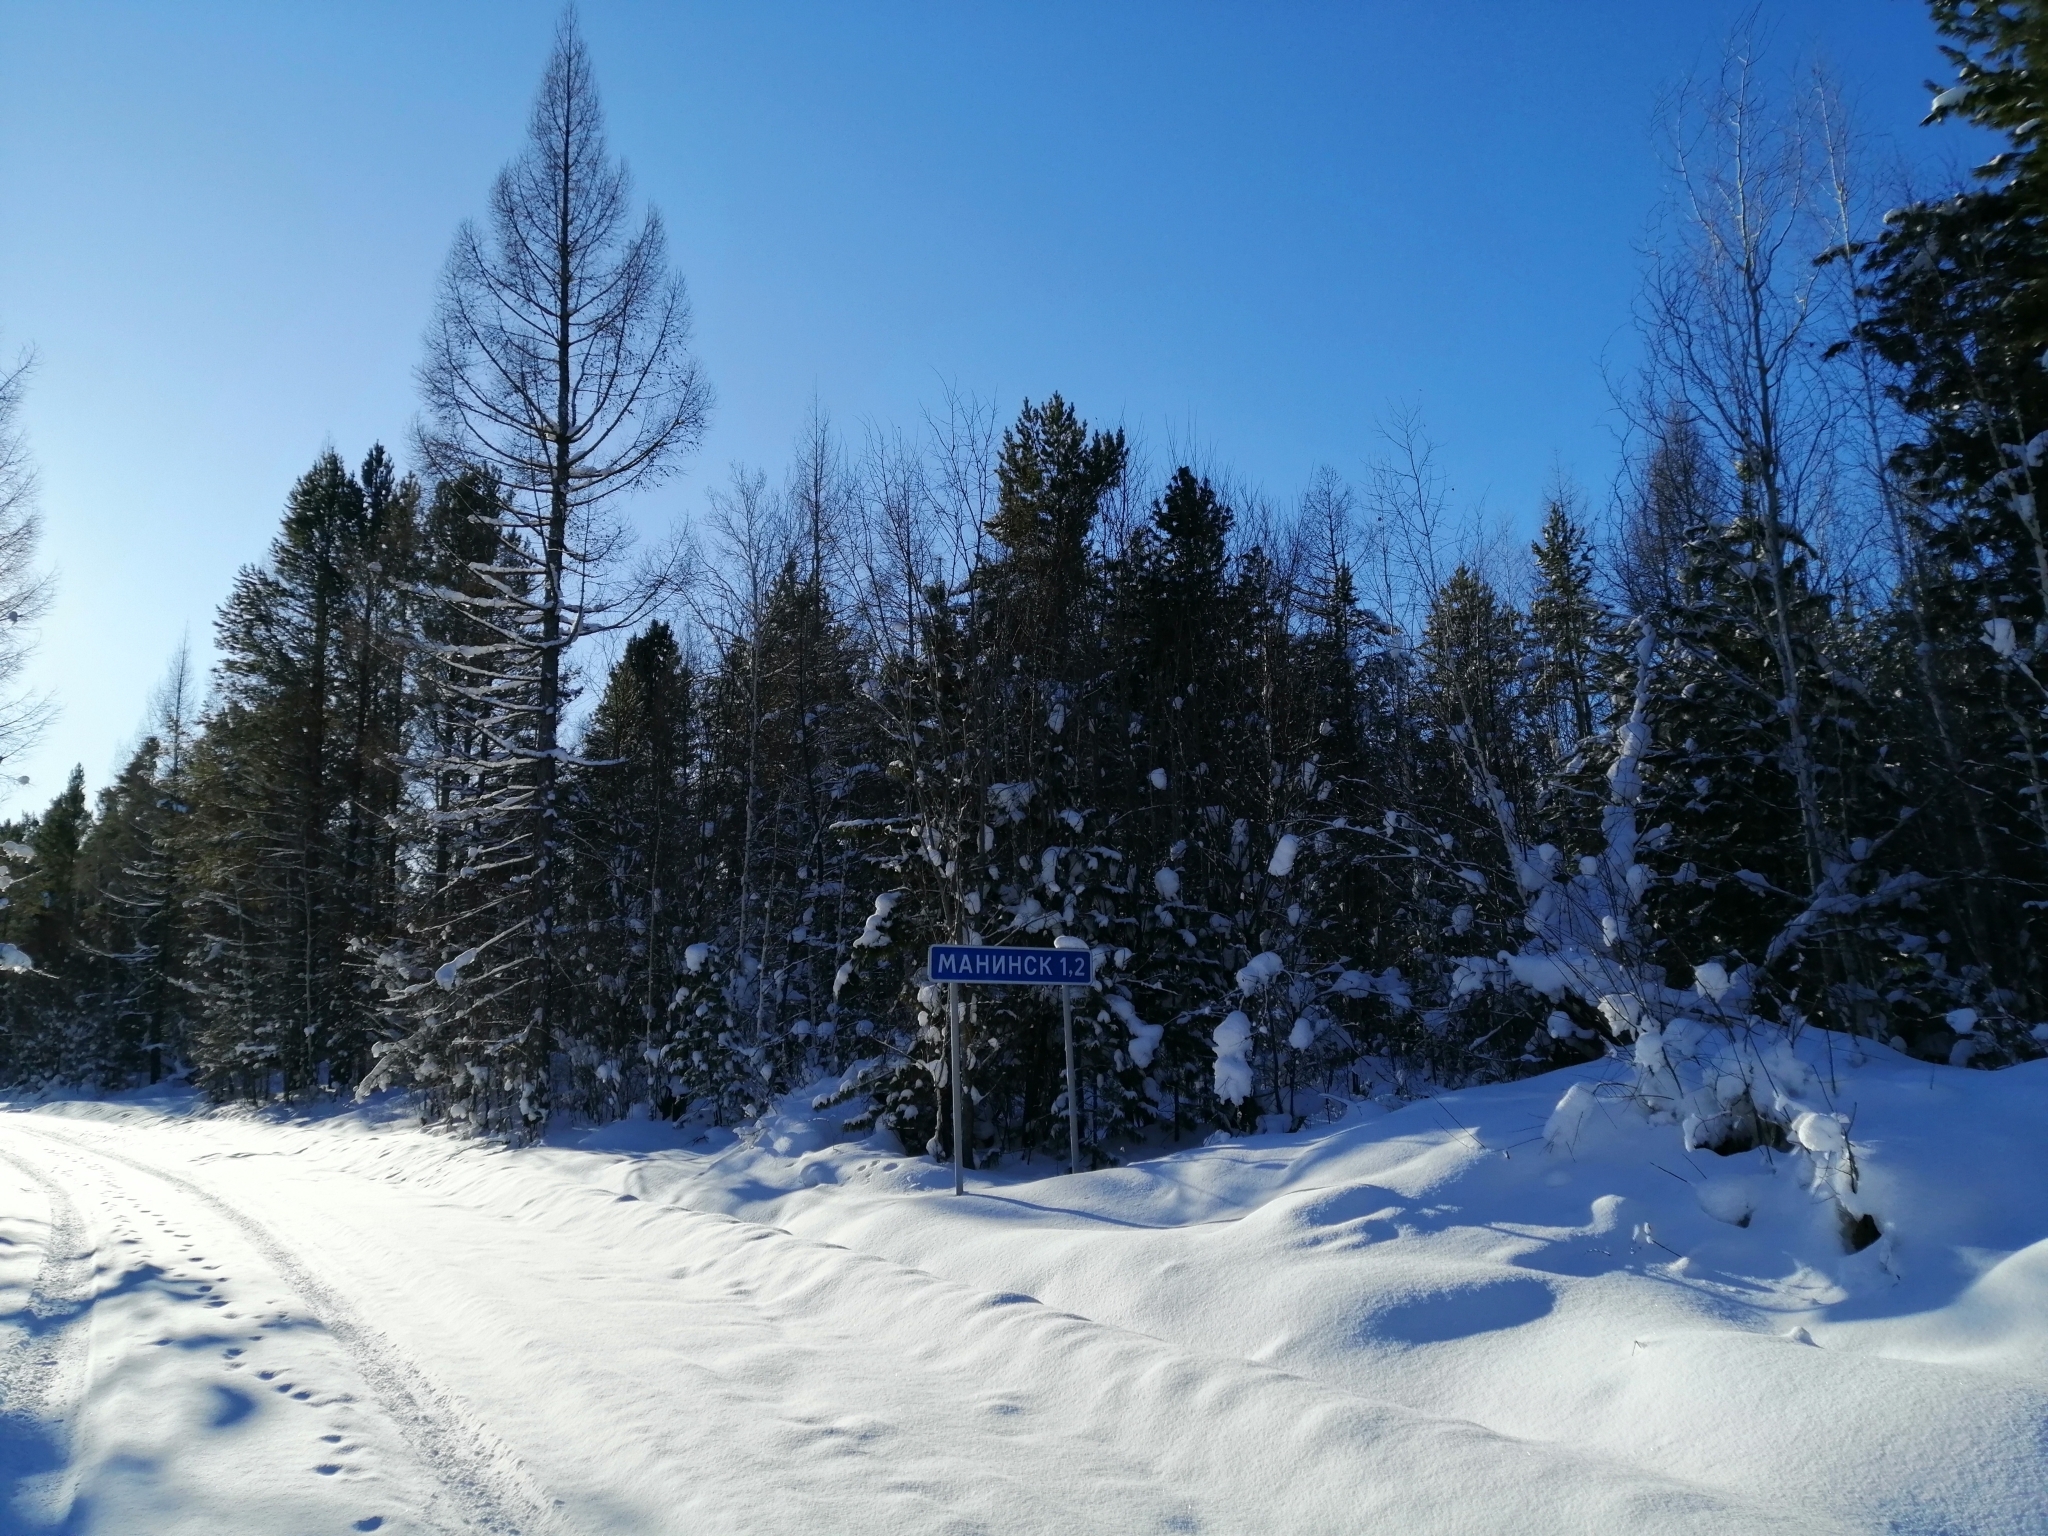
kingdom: Plantae
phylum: Tracheophyta
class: Pinopsida
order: Pinales
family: Pinaceae
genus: Larix
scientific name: Larix sibirica
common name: Siberian larch
